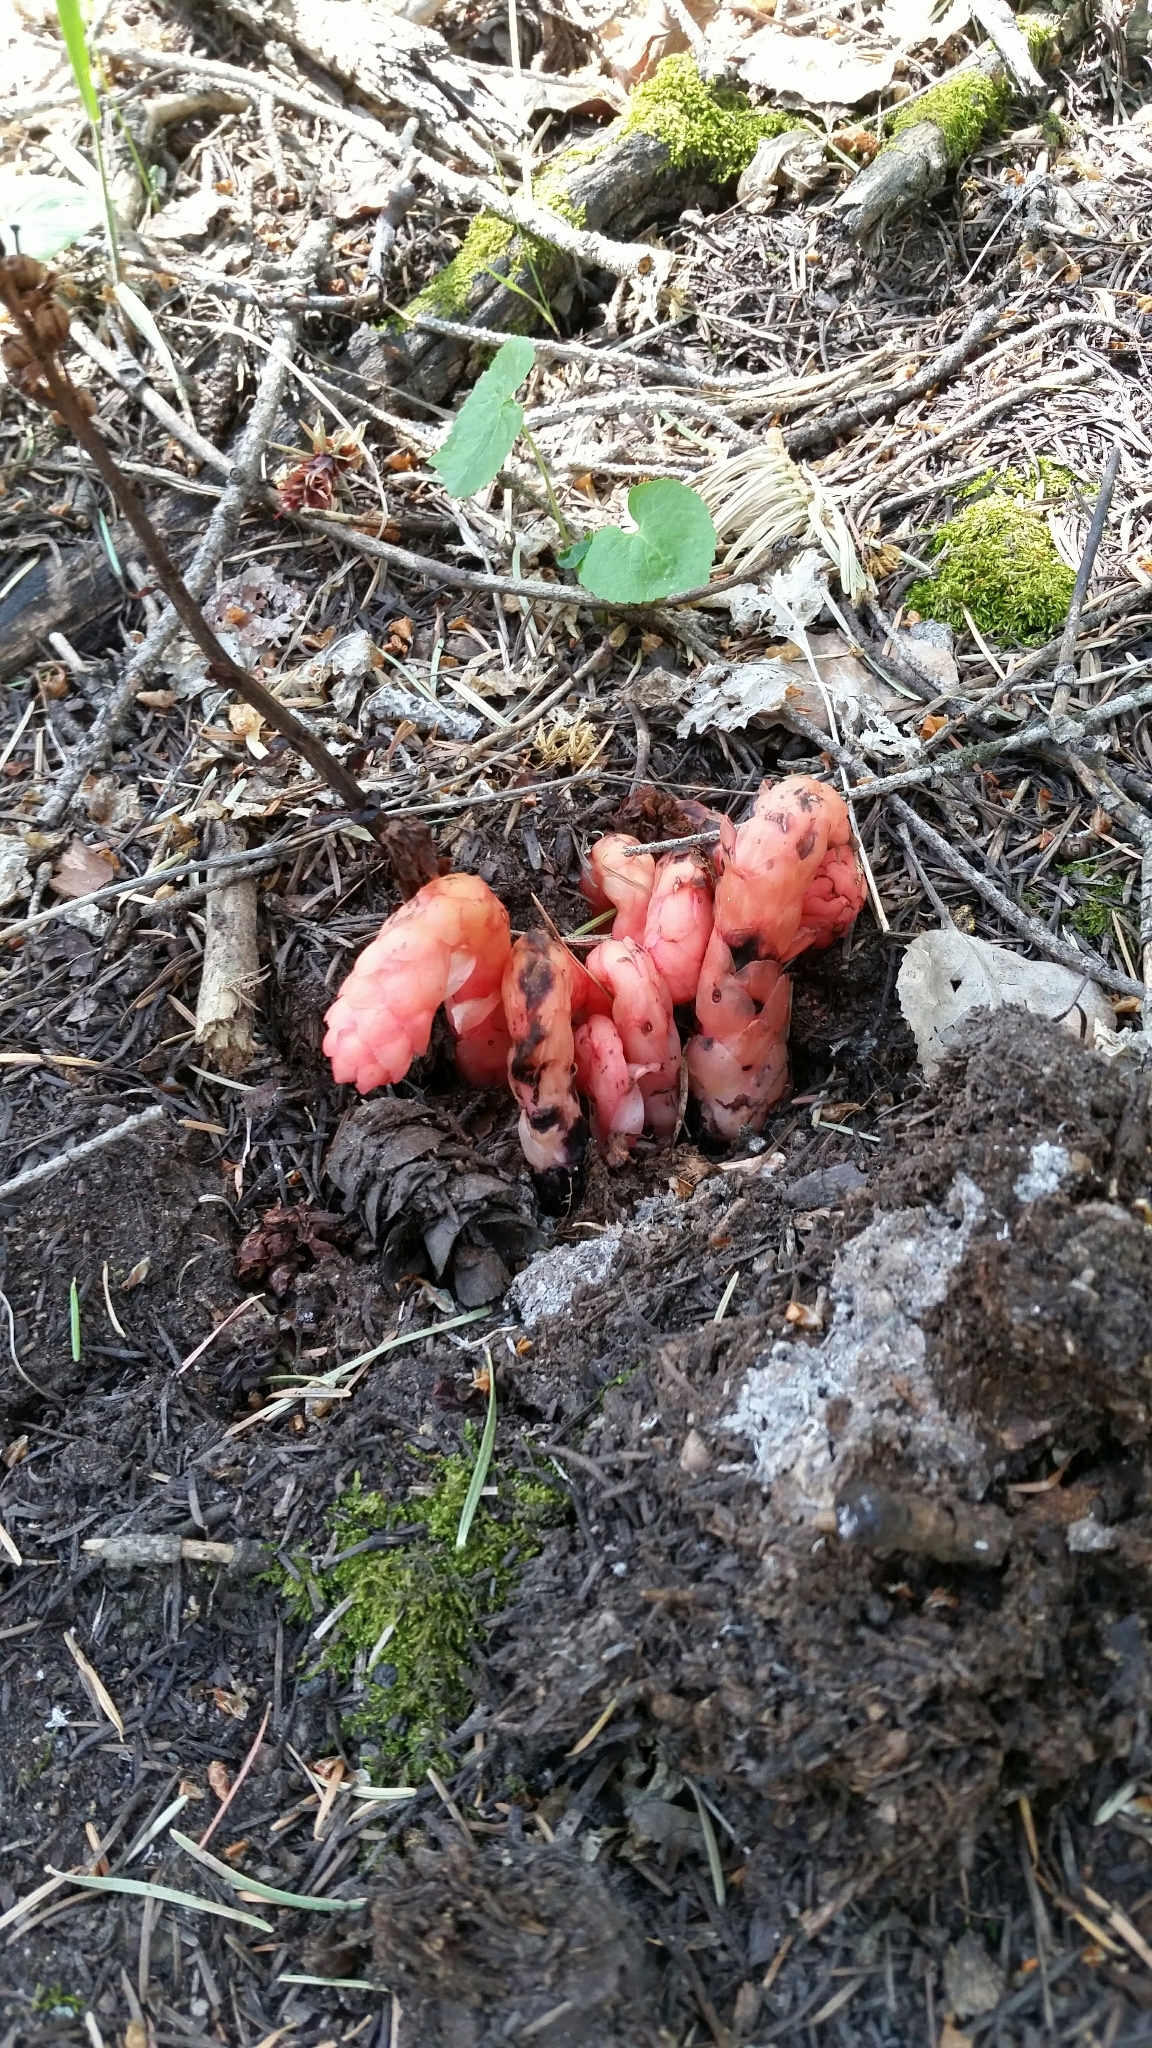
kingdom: Plantae
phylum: Tracheophyta
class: Magnoliopsida
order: Ericales
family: Ericaceae
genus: Hypopitys
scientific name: Hypopitys monotropa
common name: Yellow bird's-nest
